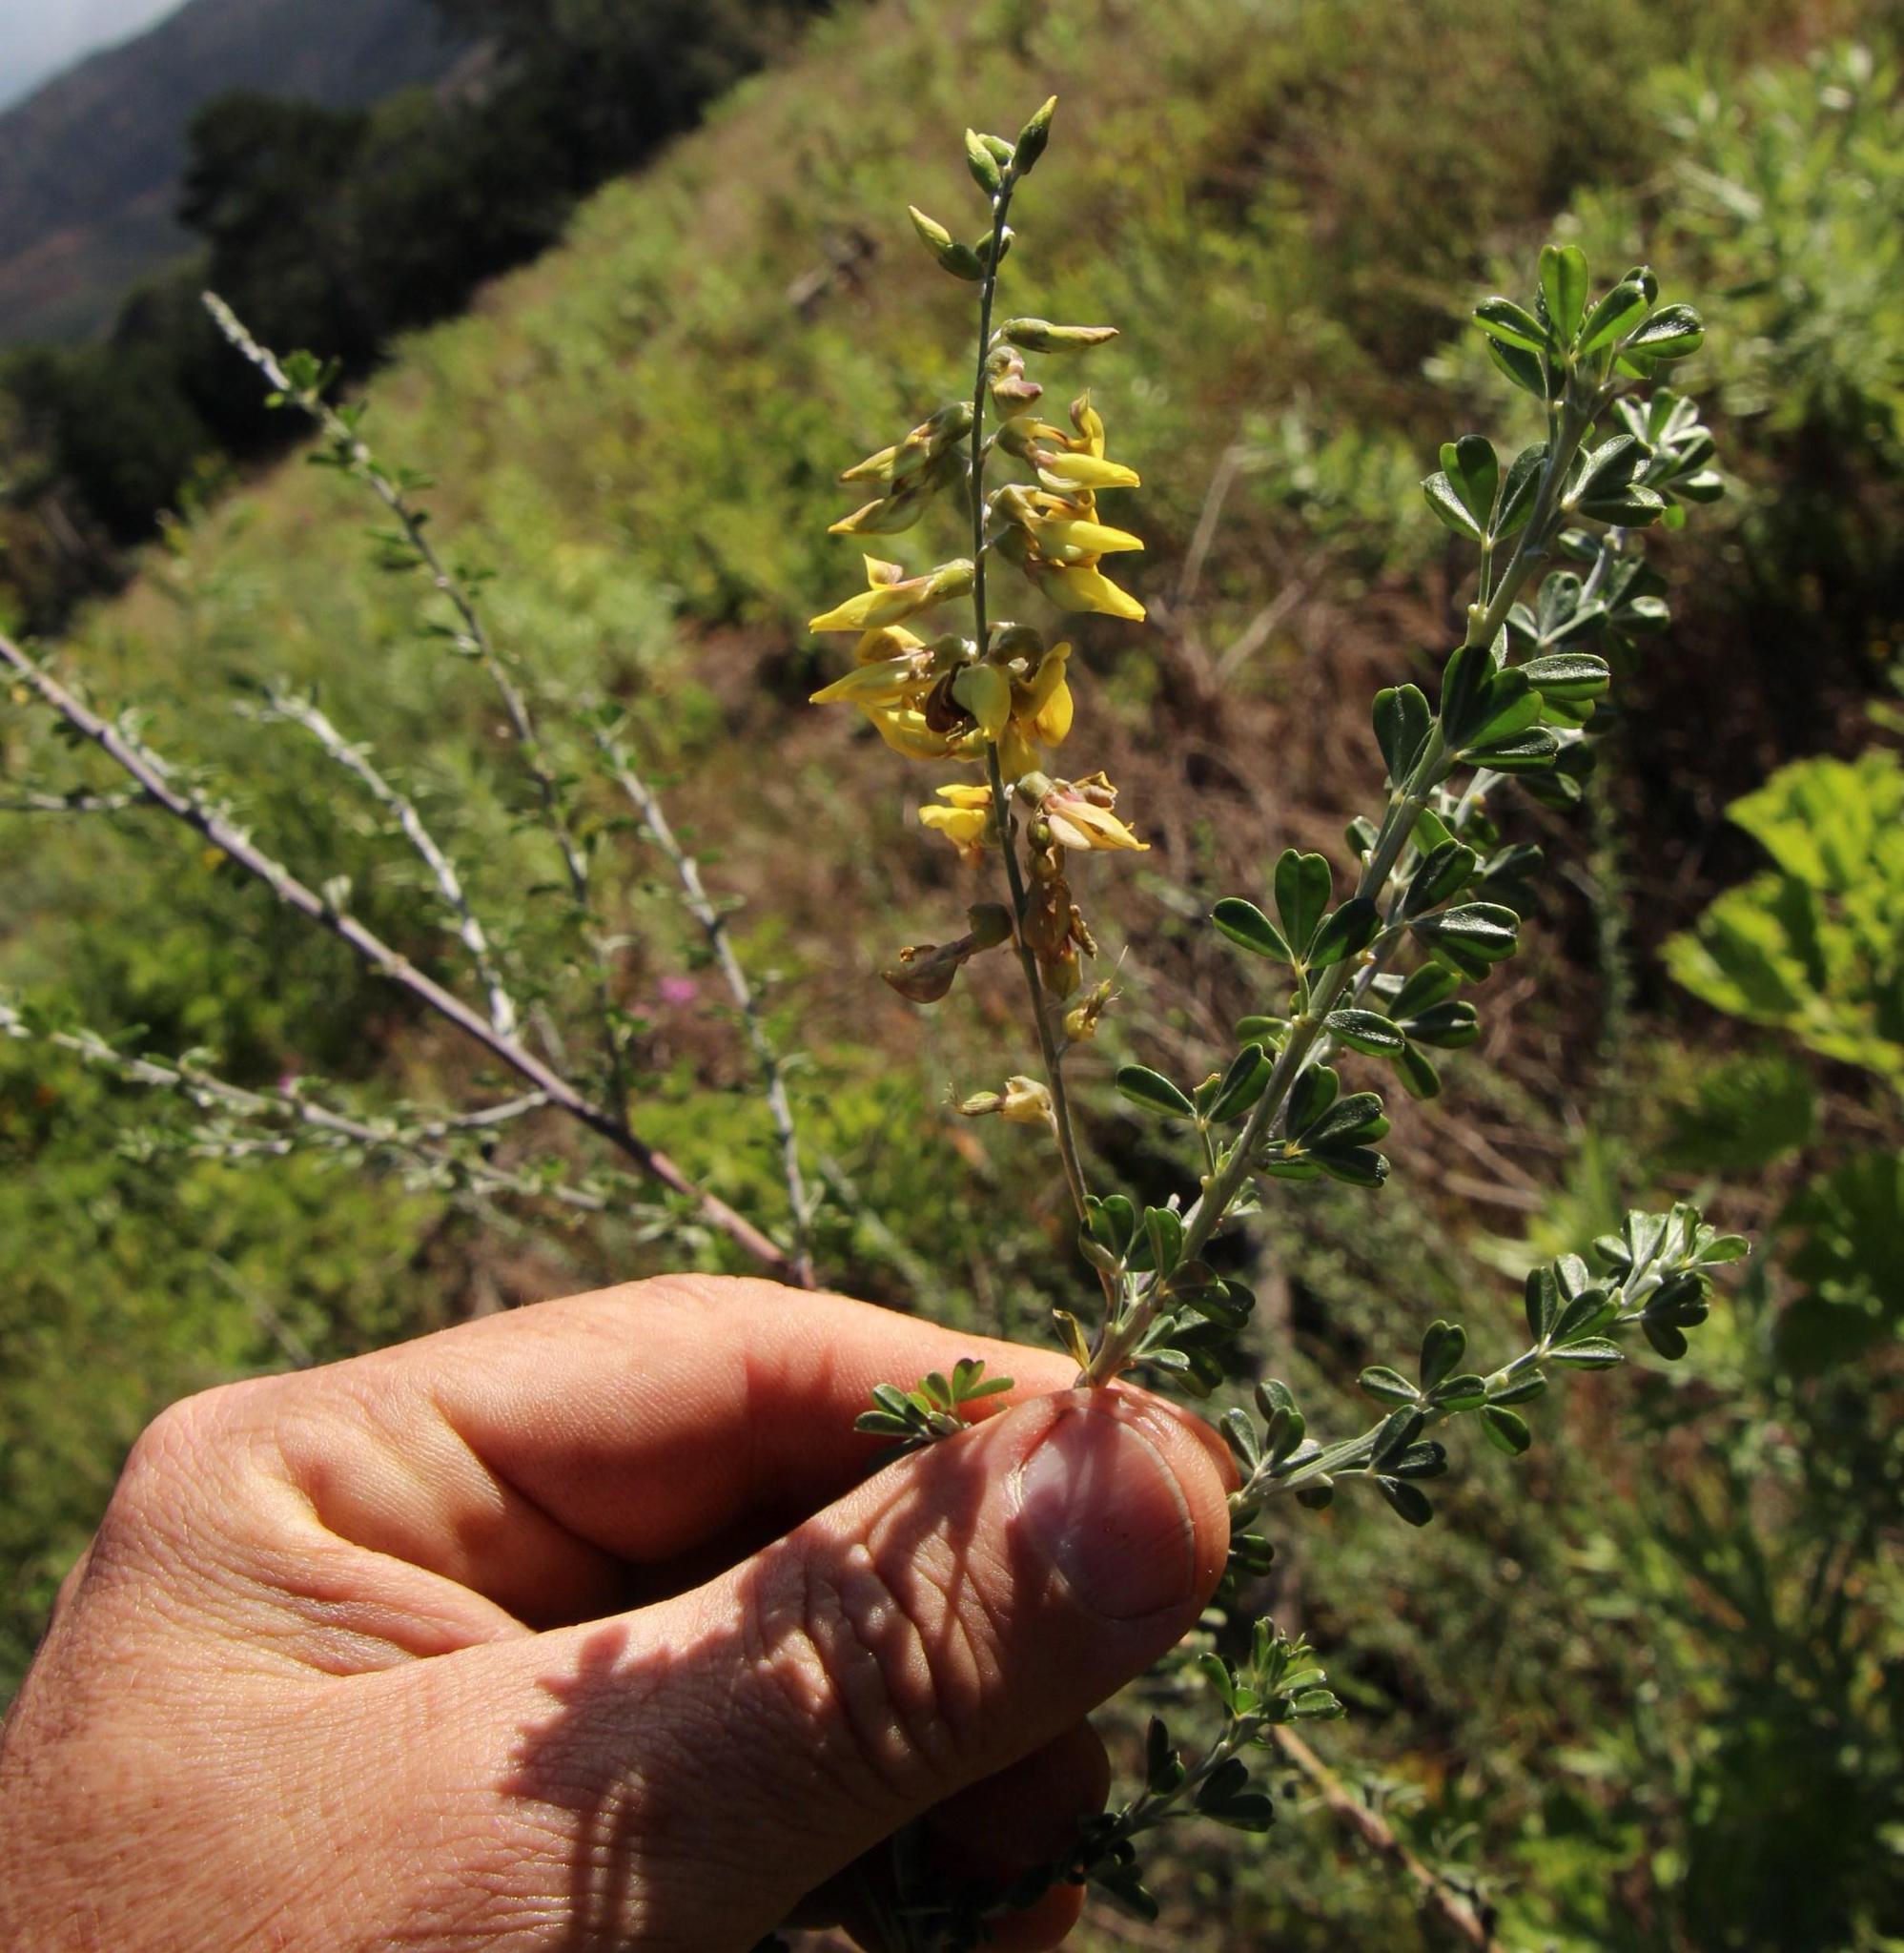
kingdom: Plantae
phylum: Tracheophyta
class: Magnoliopsida
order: Fabales
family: Fabaceae
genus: Wiborgia
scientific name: Wiborgia obcordata
